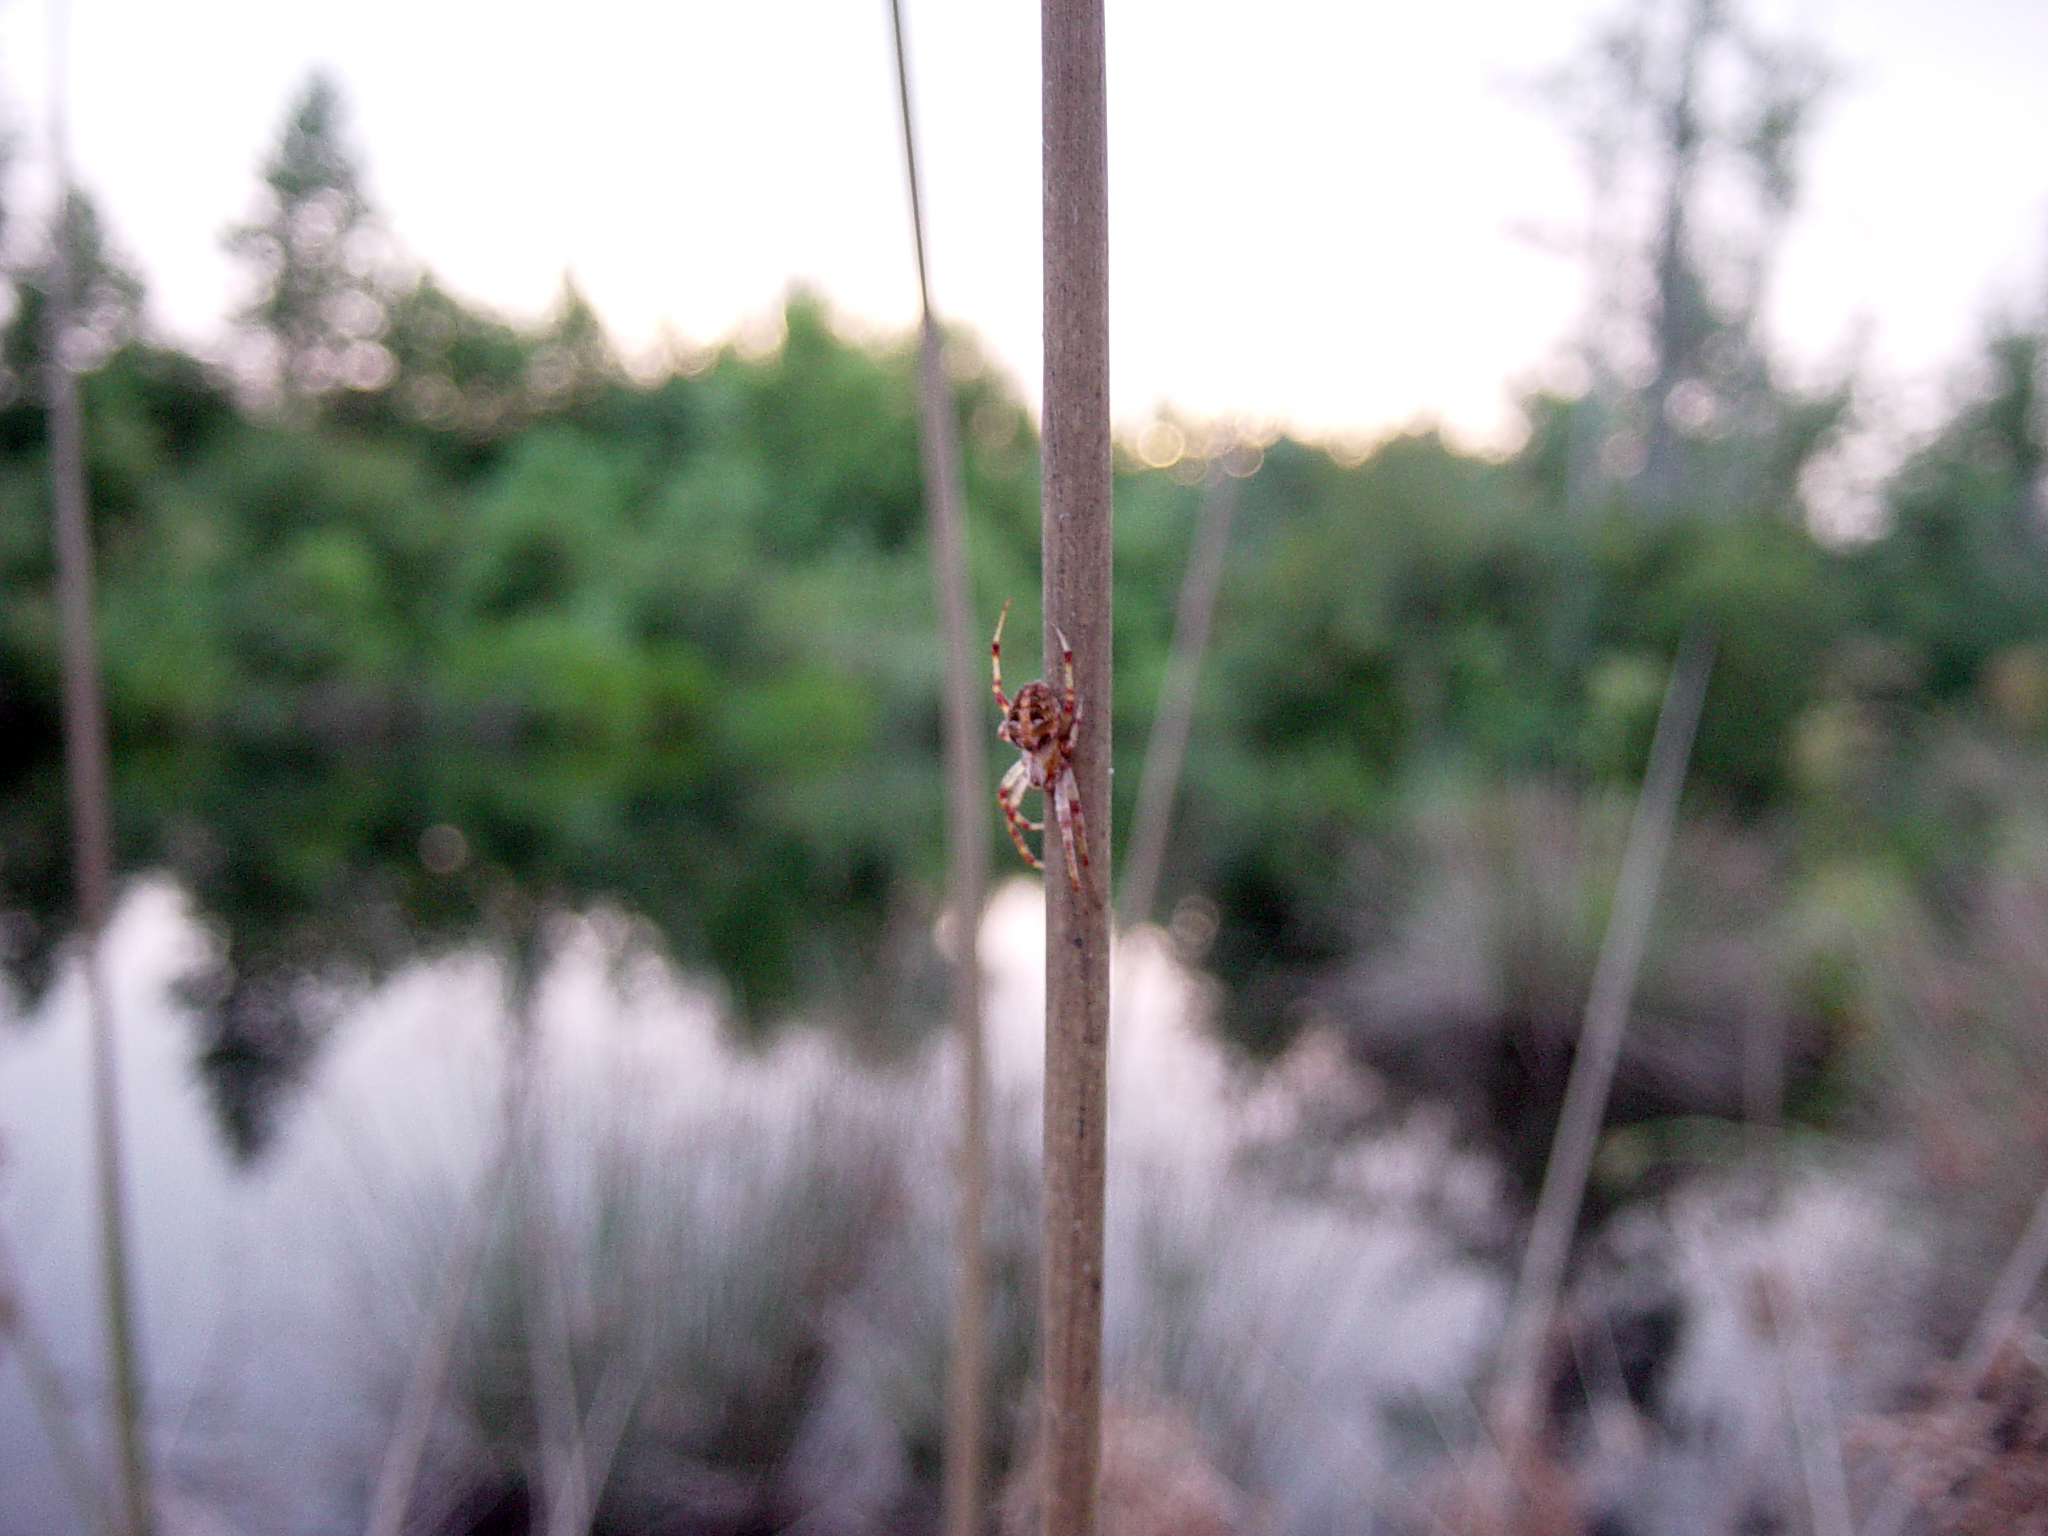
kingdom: Animalia
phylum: Arthropoda
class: Arachnida
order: Araneae
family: Araneidae
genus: Neoscona
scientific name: Neoscona arabesca
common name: Orb weavers
